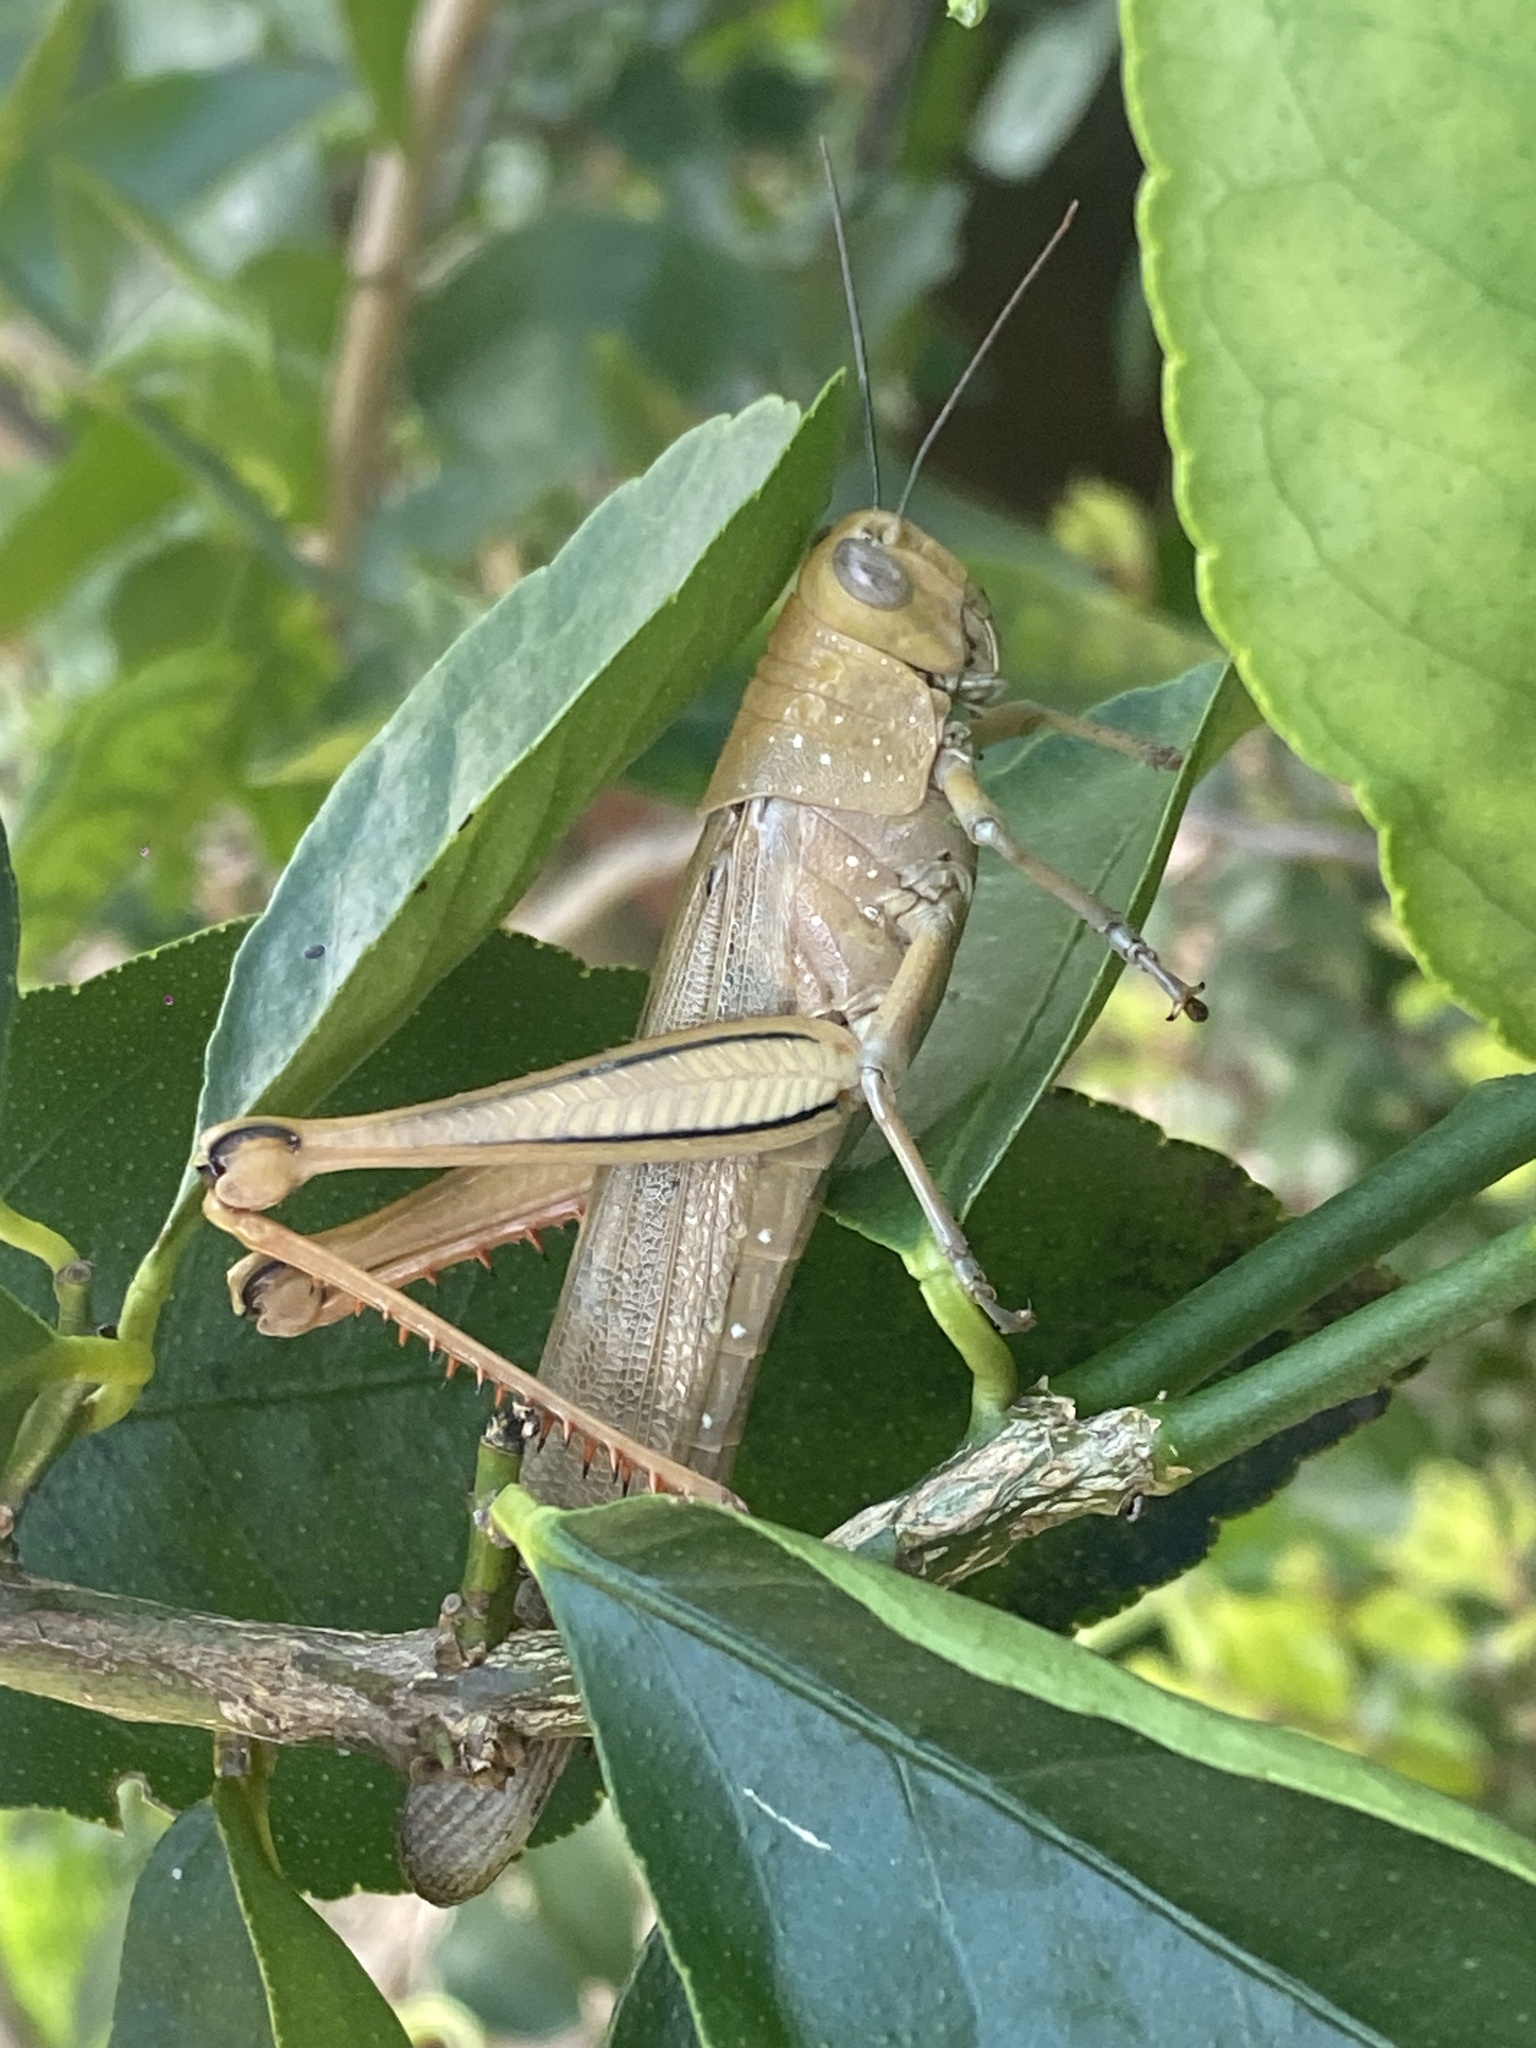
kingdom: Animalia
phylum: Arthropoda
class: Insecta
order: Orthoptera
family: Acrididae
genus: Valanga
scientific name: Valanga irregularis
